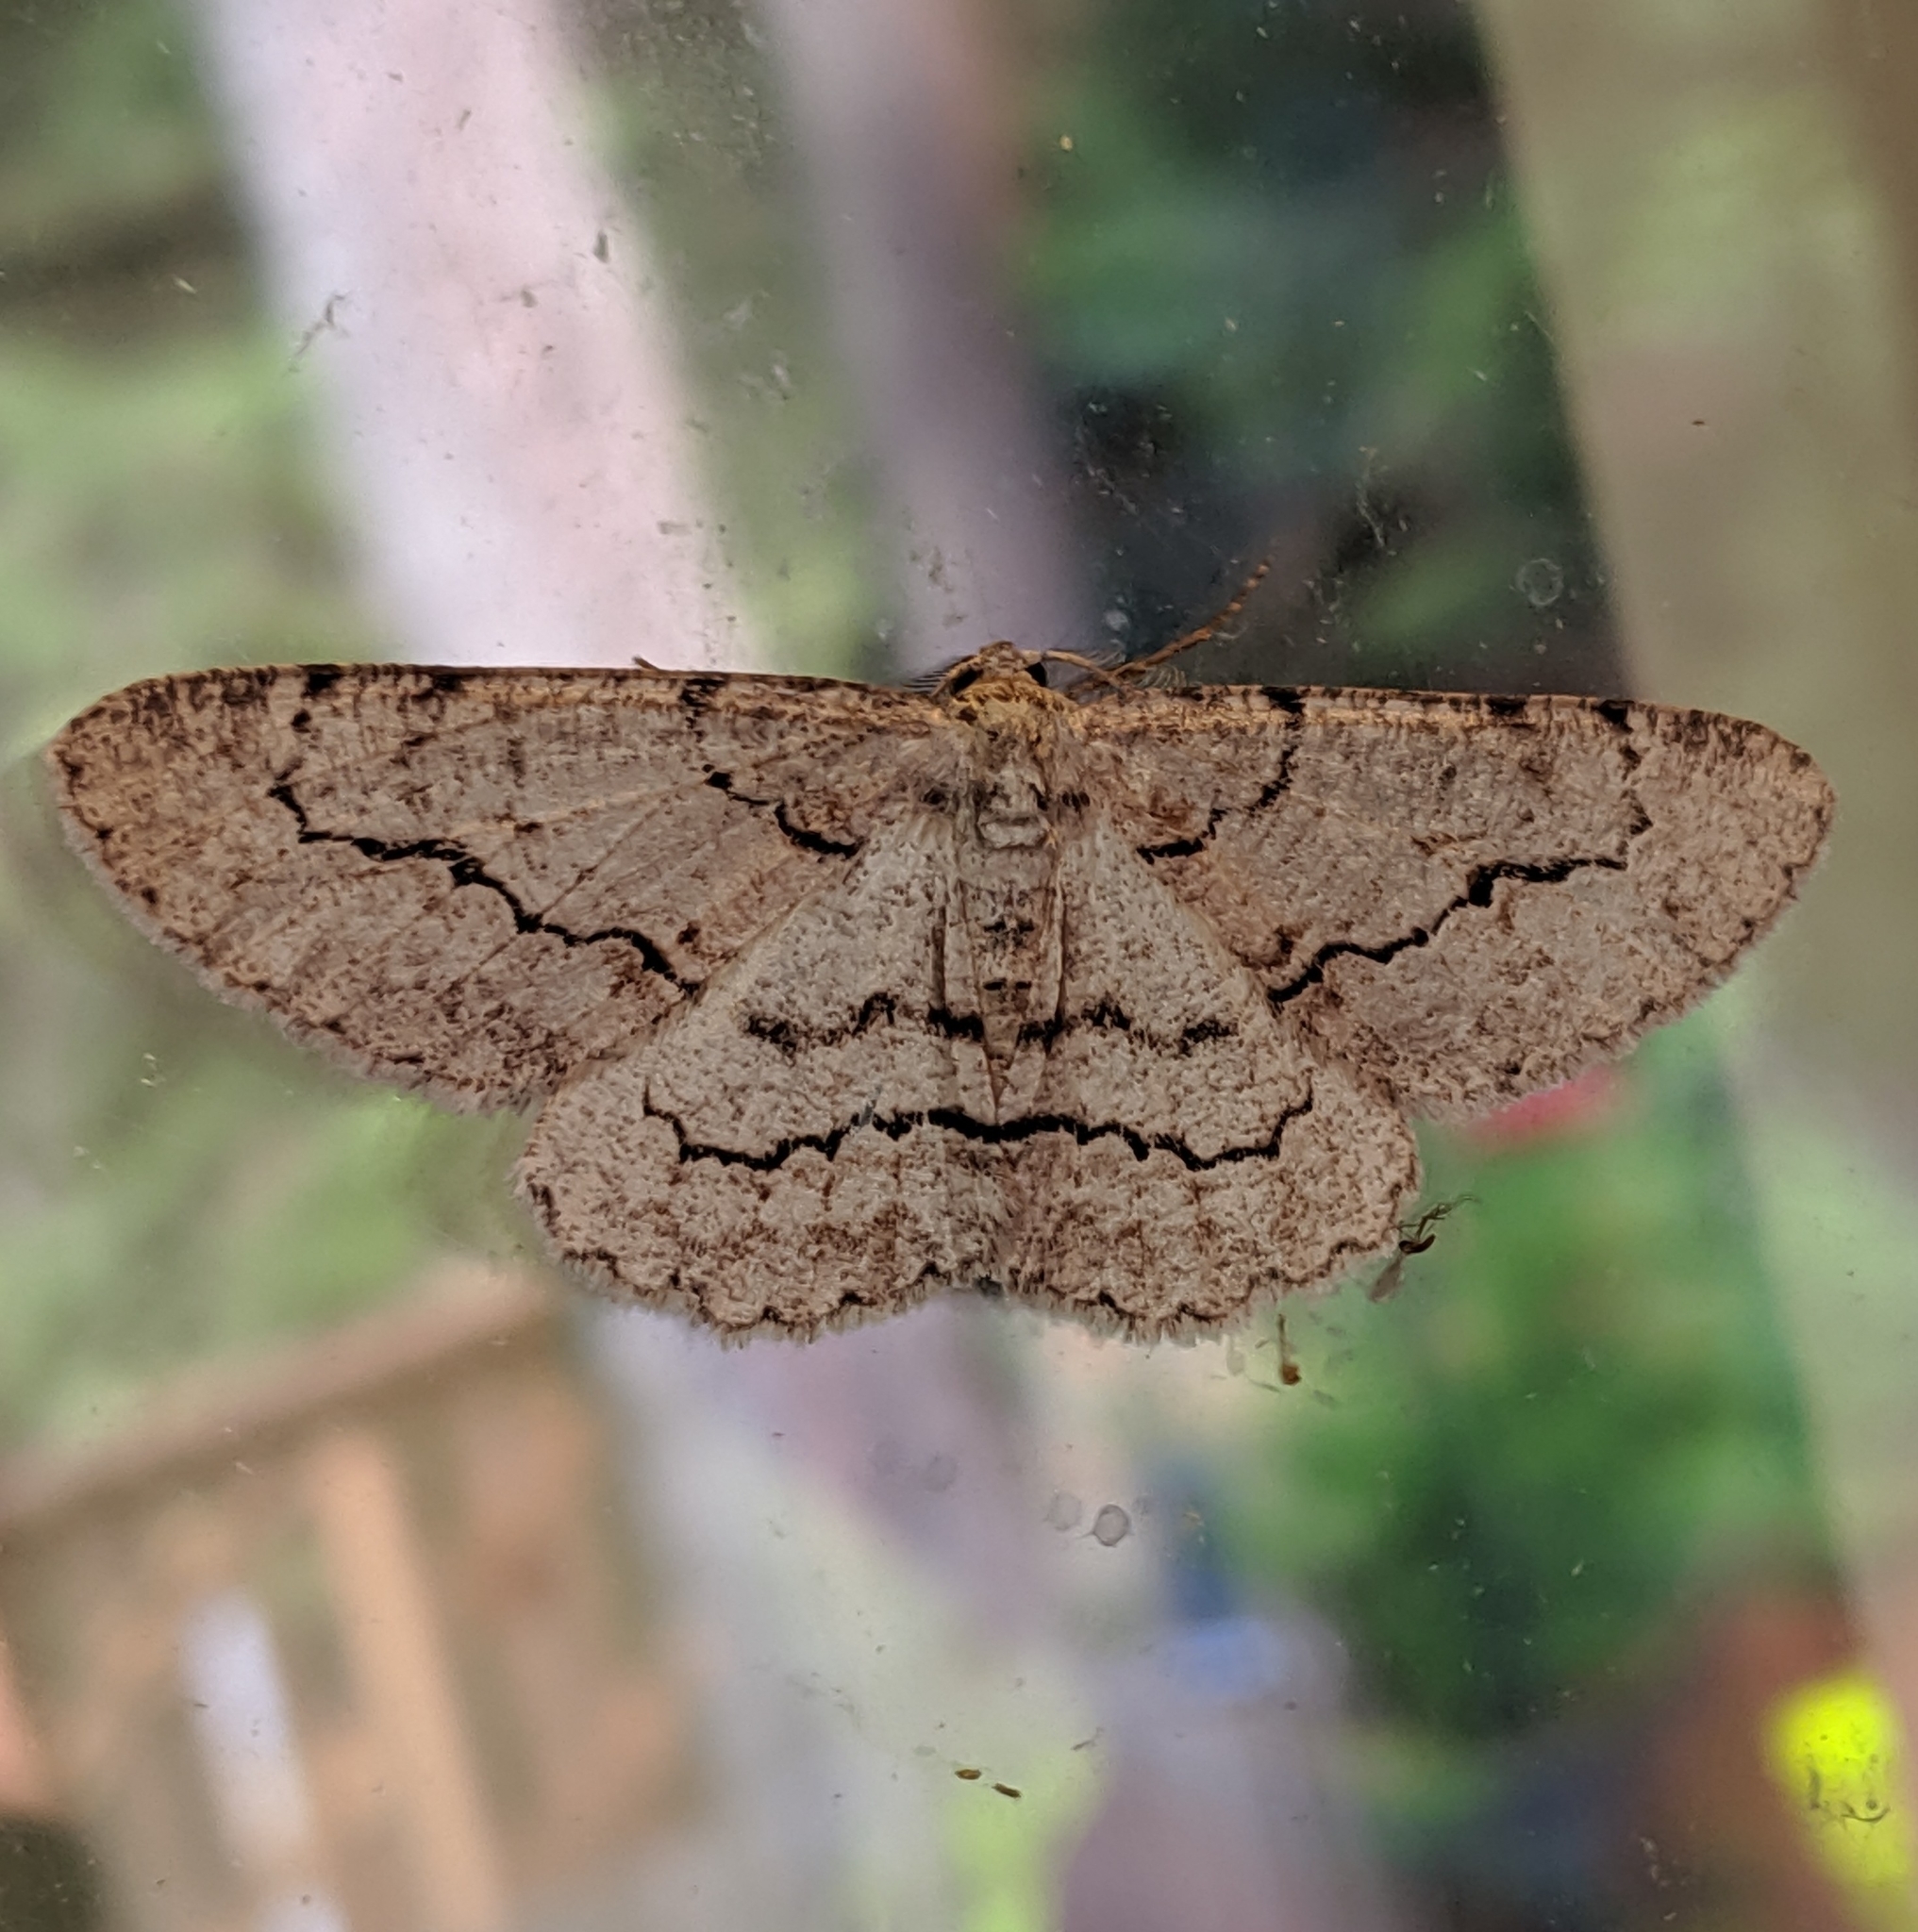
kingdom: Animalia
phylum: Arthropoda
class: Insecta
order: Lepidoptera
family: Geometridae
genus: Stenoporpia
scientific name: Stenoporpia pulmonaria
